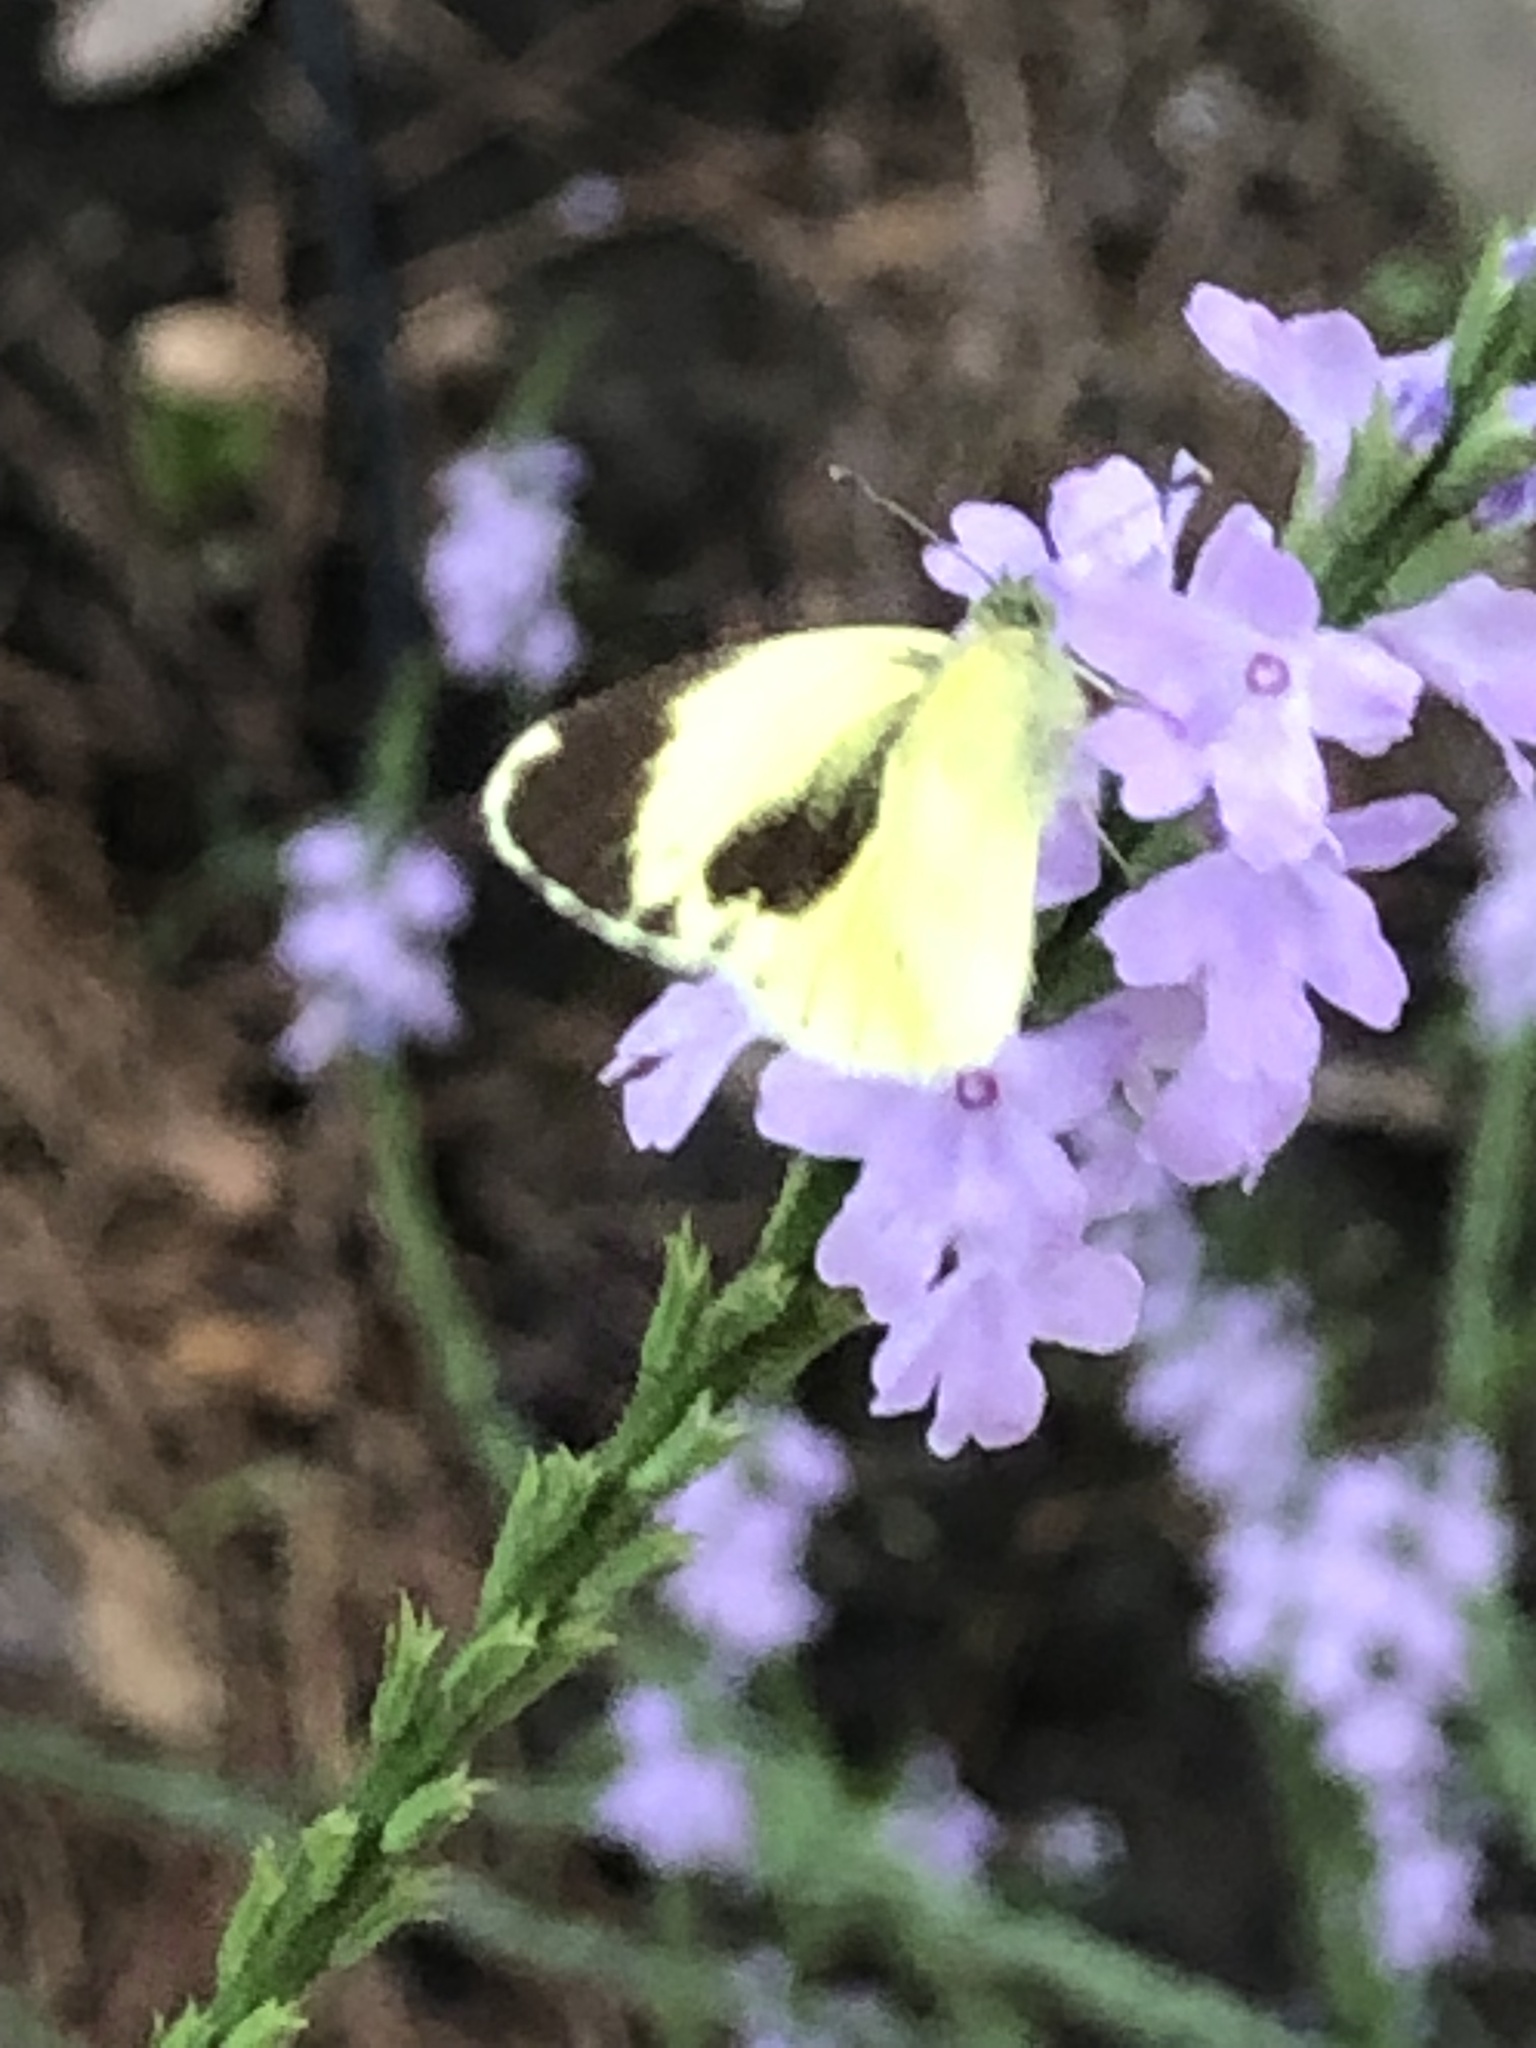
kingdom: Animalia
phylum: Arthropoda
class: Insecta
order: Lepidoptera
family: Pieridae
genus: Nathalis
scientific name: Nathalis iole
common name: Dainty sulphur
